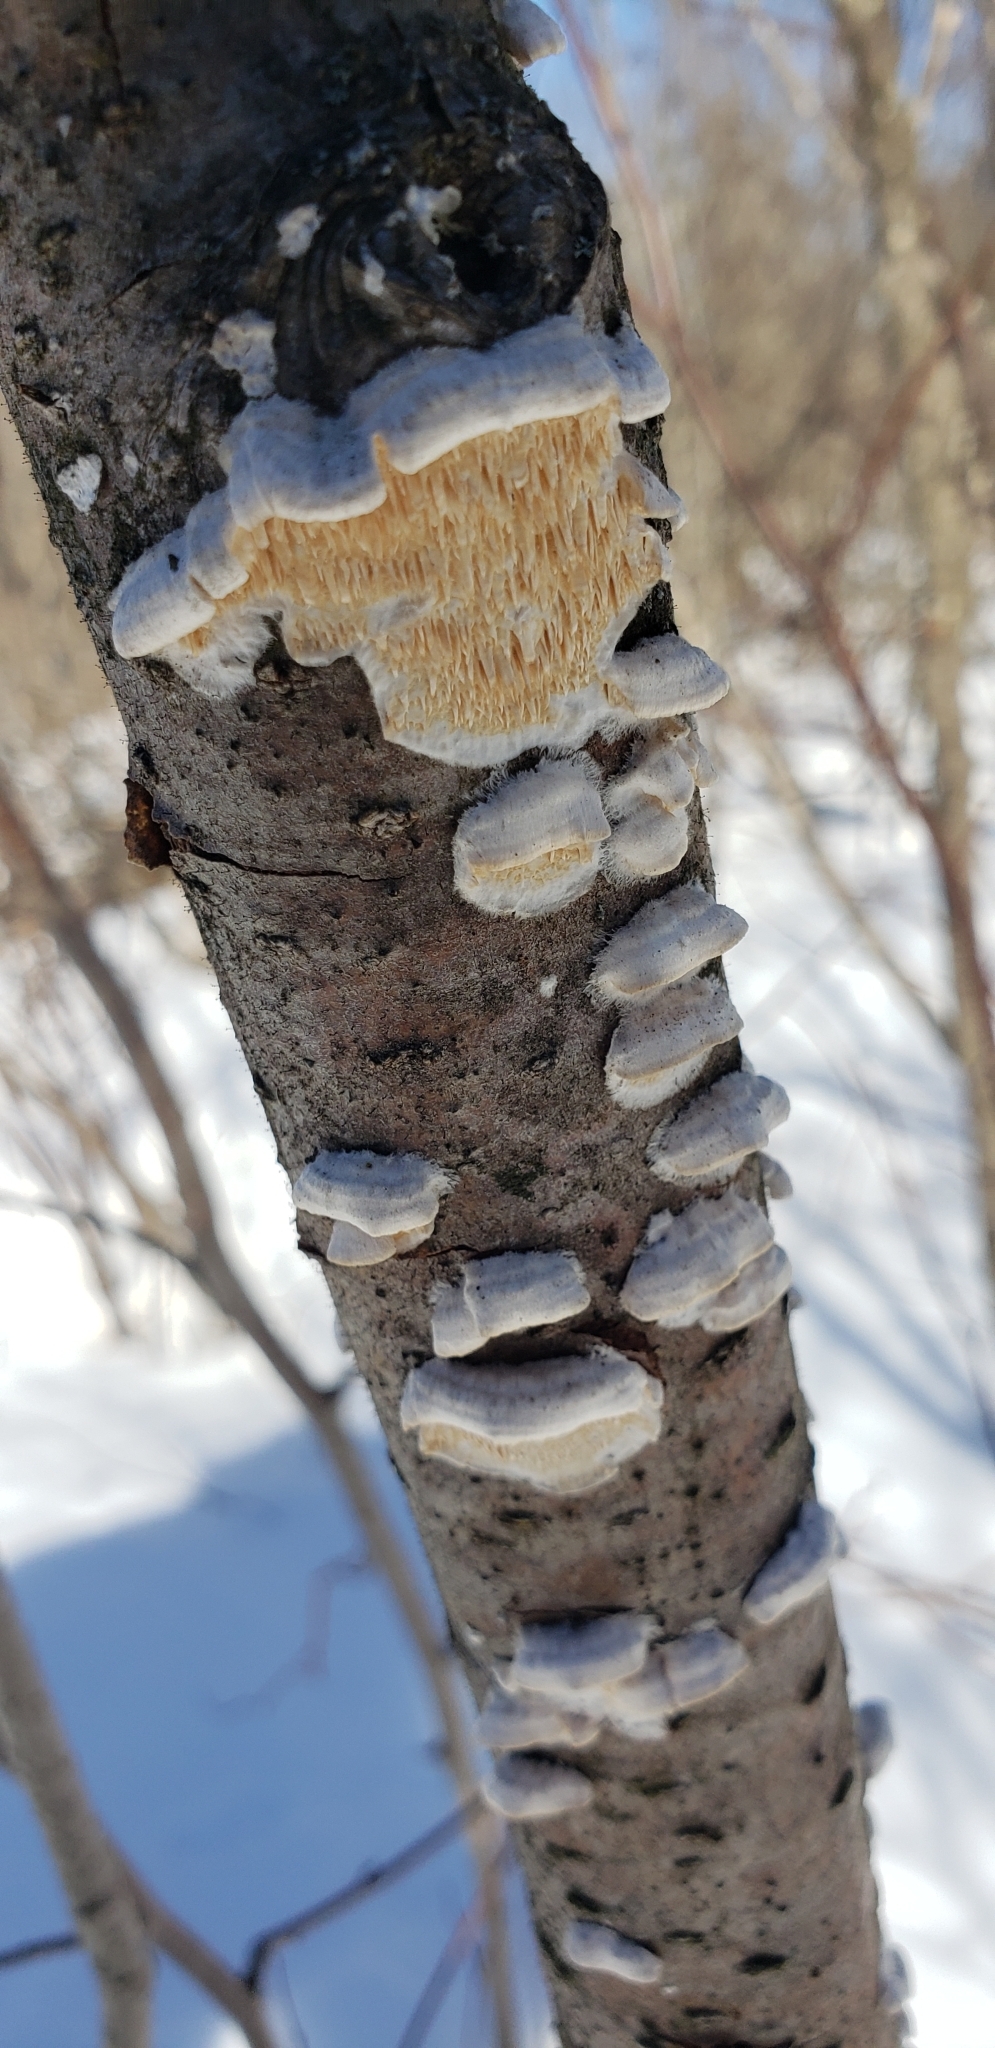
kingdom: Fungi
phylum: Basidiomycota
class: Agaricomycetes
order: Polyporales
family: Irpicaceae
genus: Irpex
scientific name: Irpex lacteus
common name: Milk-white toothed polypore
